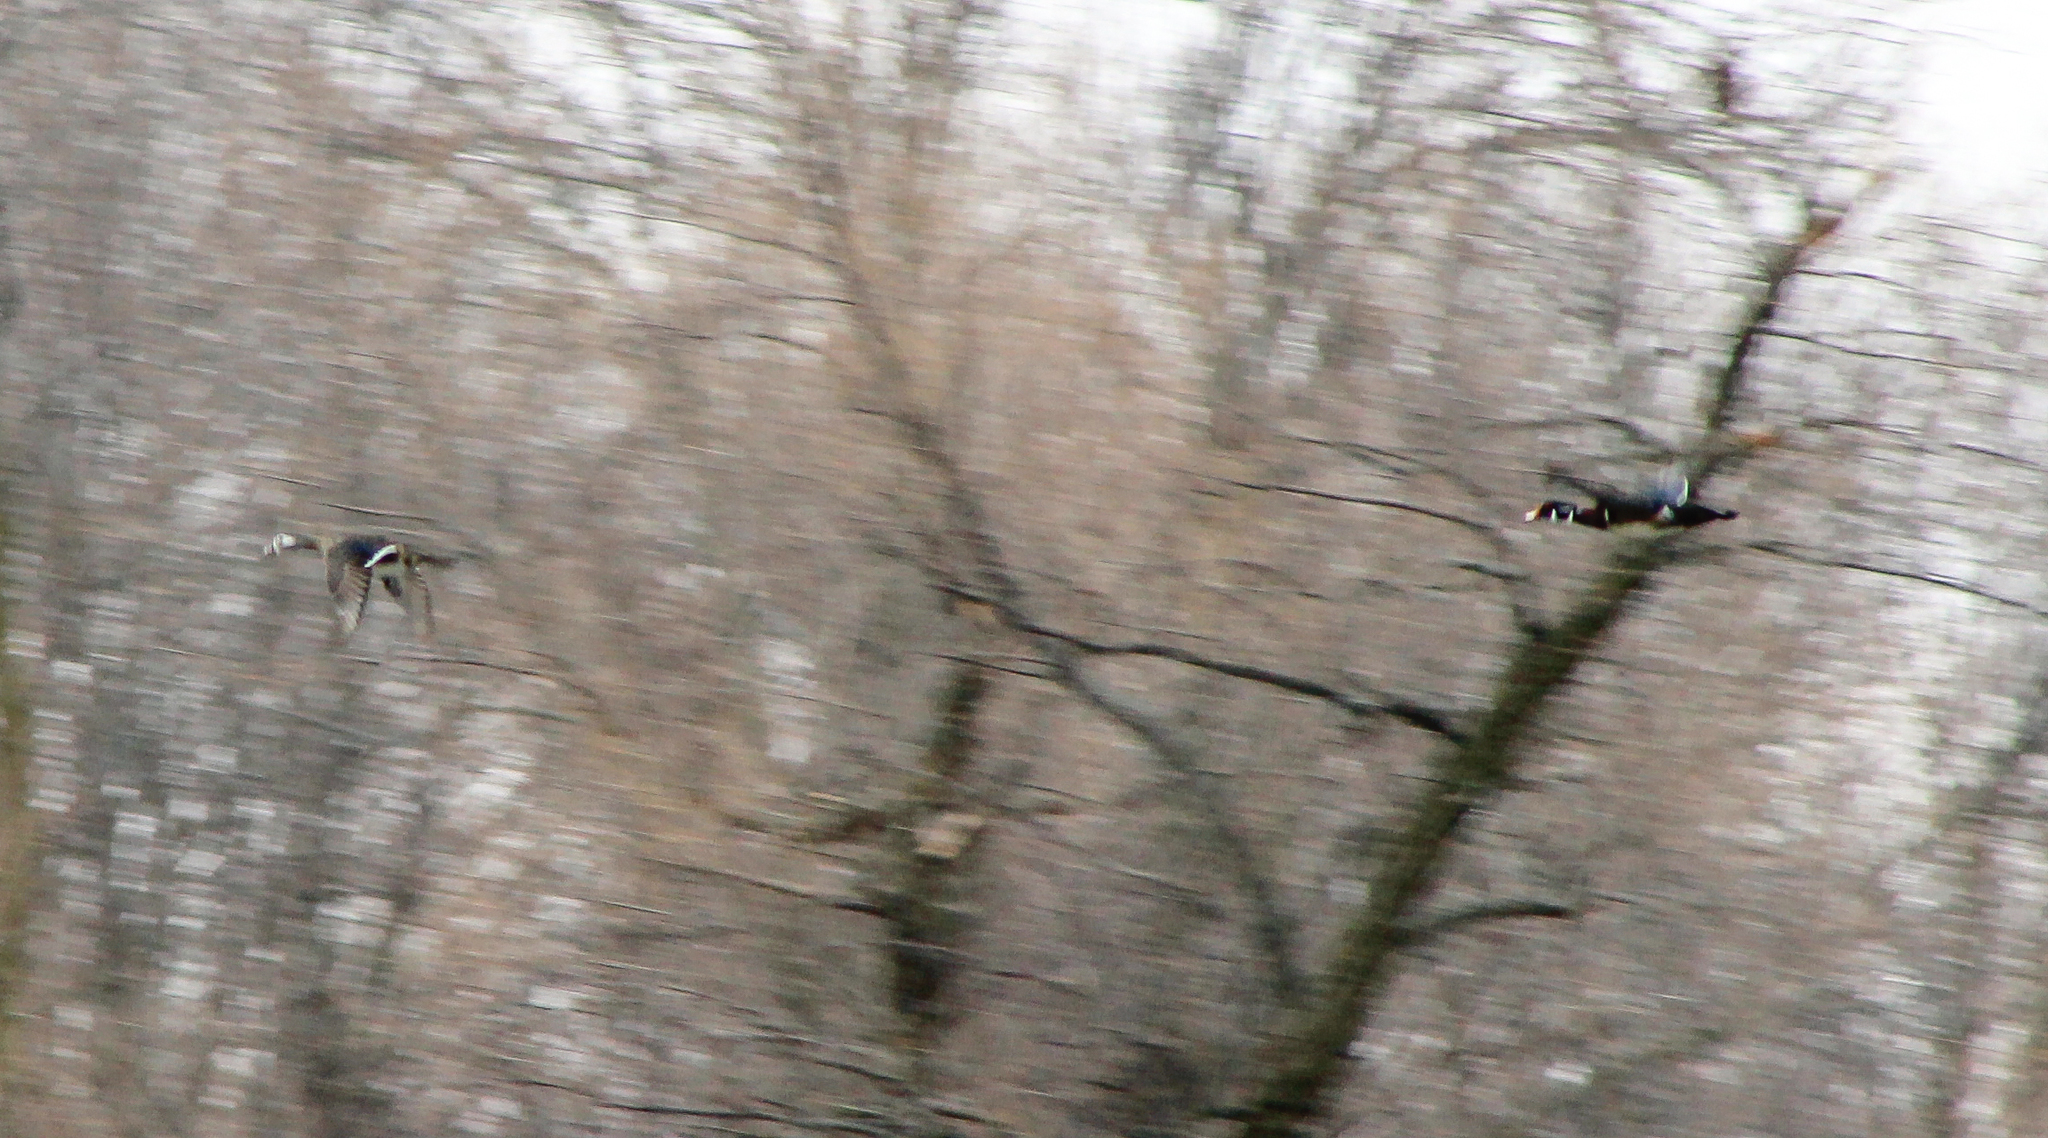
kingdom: Animalia
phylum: Chordata
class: Aves
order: Anseriformes
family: Anatidae
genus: Aix
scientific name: Aix sponsa
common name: Wood duck
